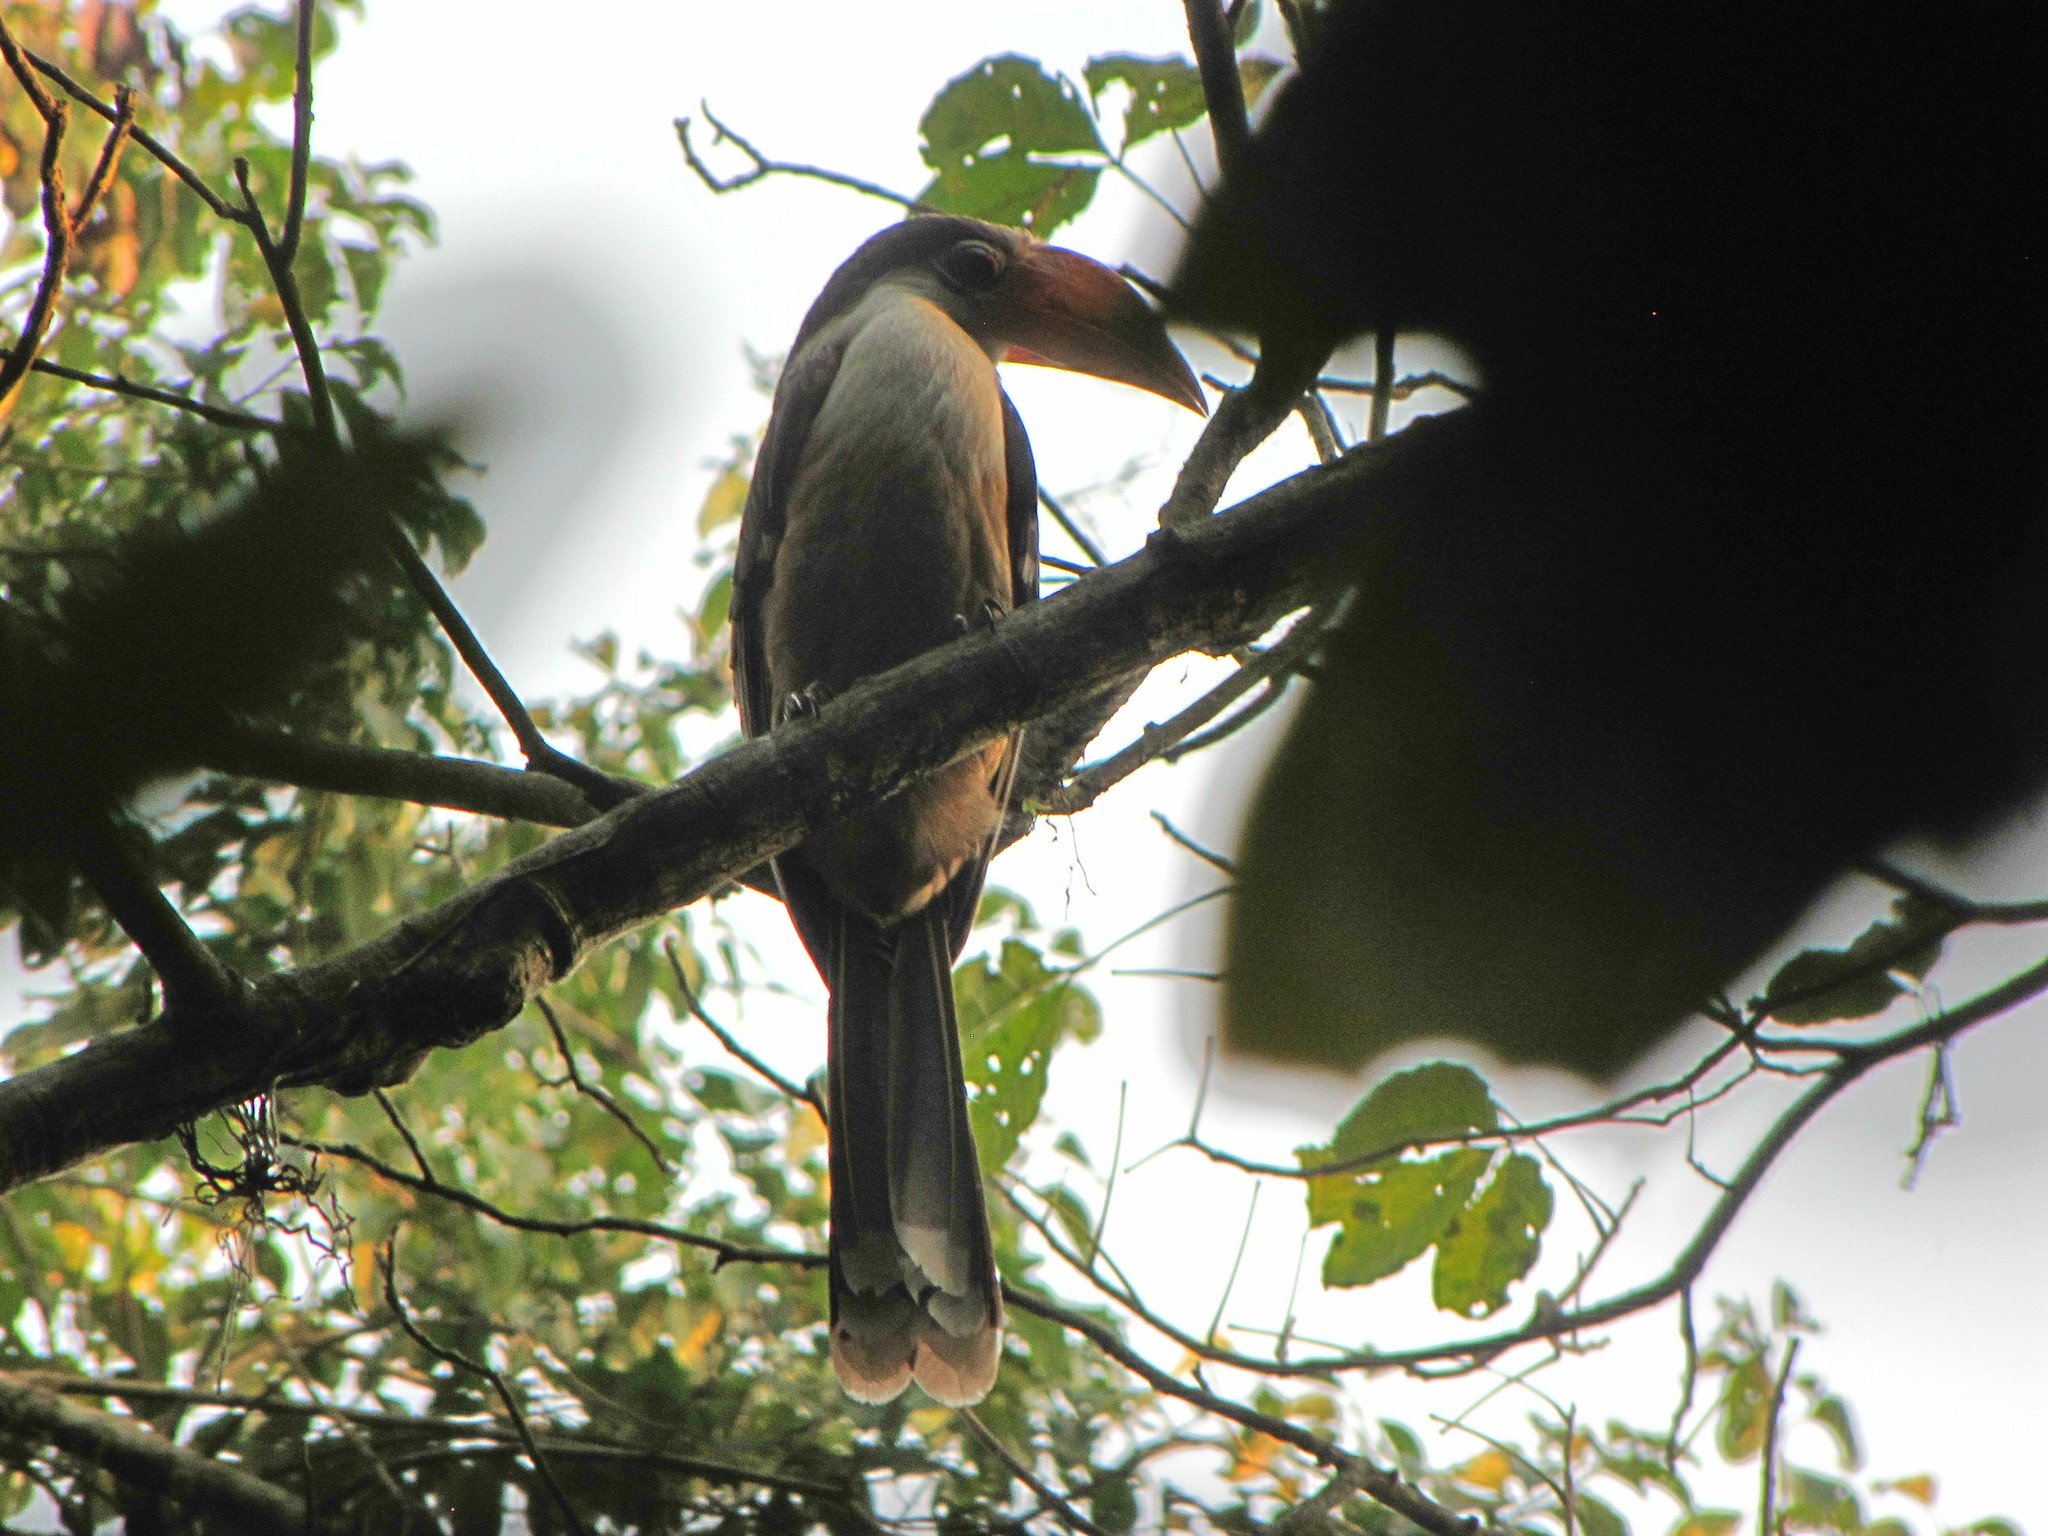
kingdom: Animalia
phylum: Chordata
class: Aves
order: Bucerotiformes
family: Bucerotidae
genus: Anorrhinus
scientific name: Anorrhinus austeni
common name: Austen's brown hornbill
